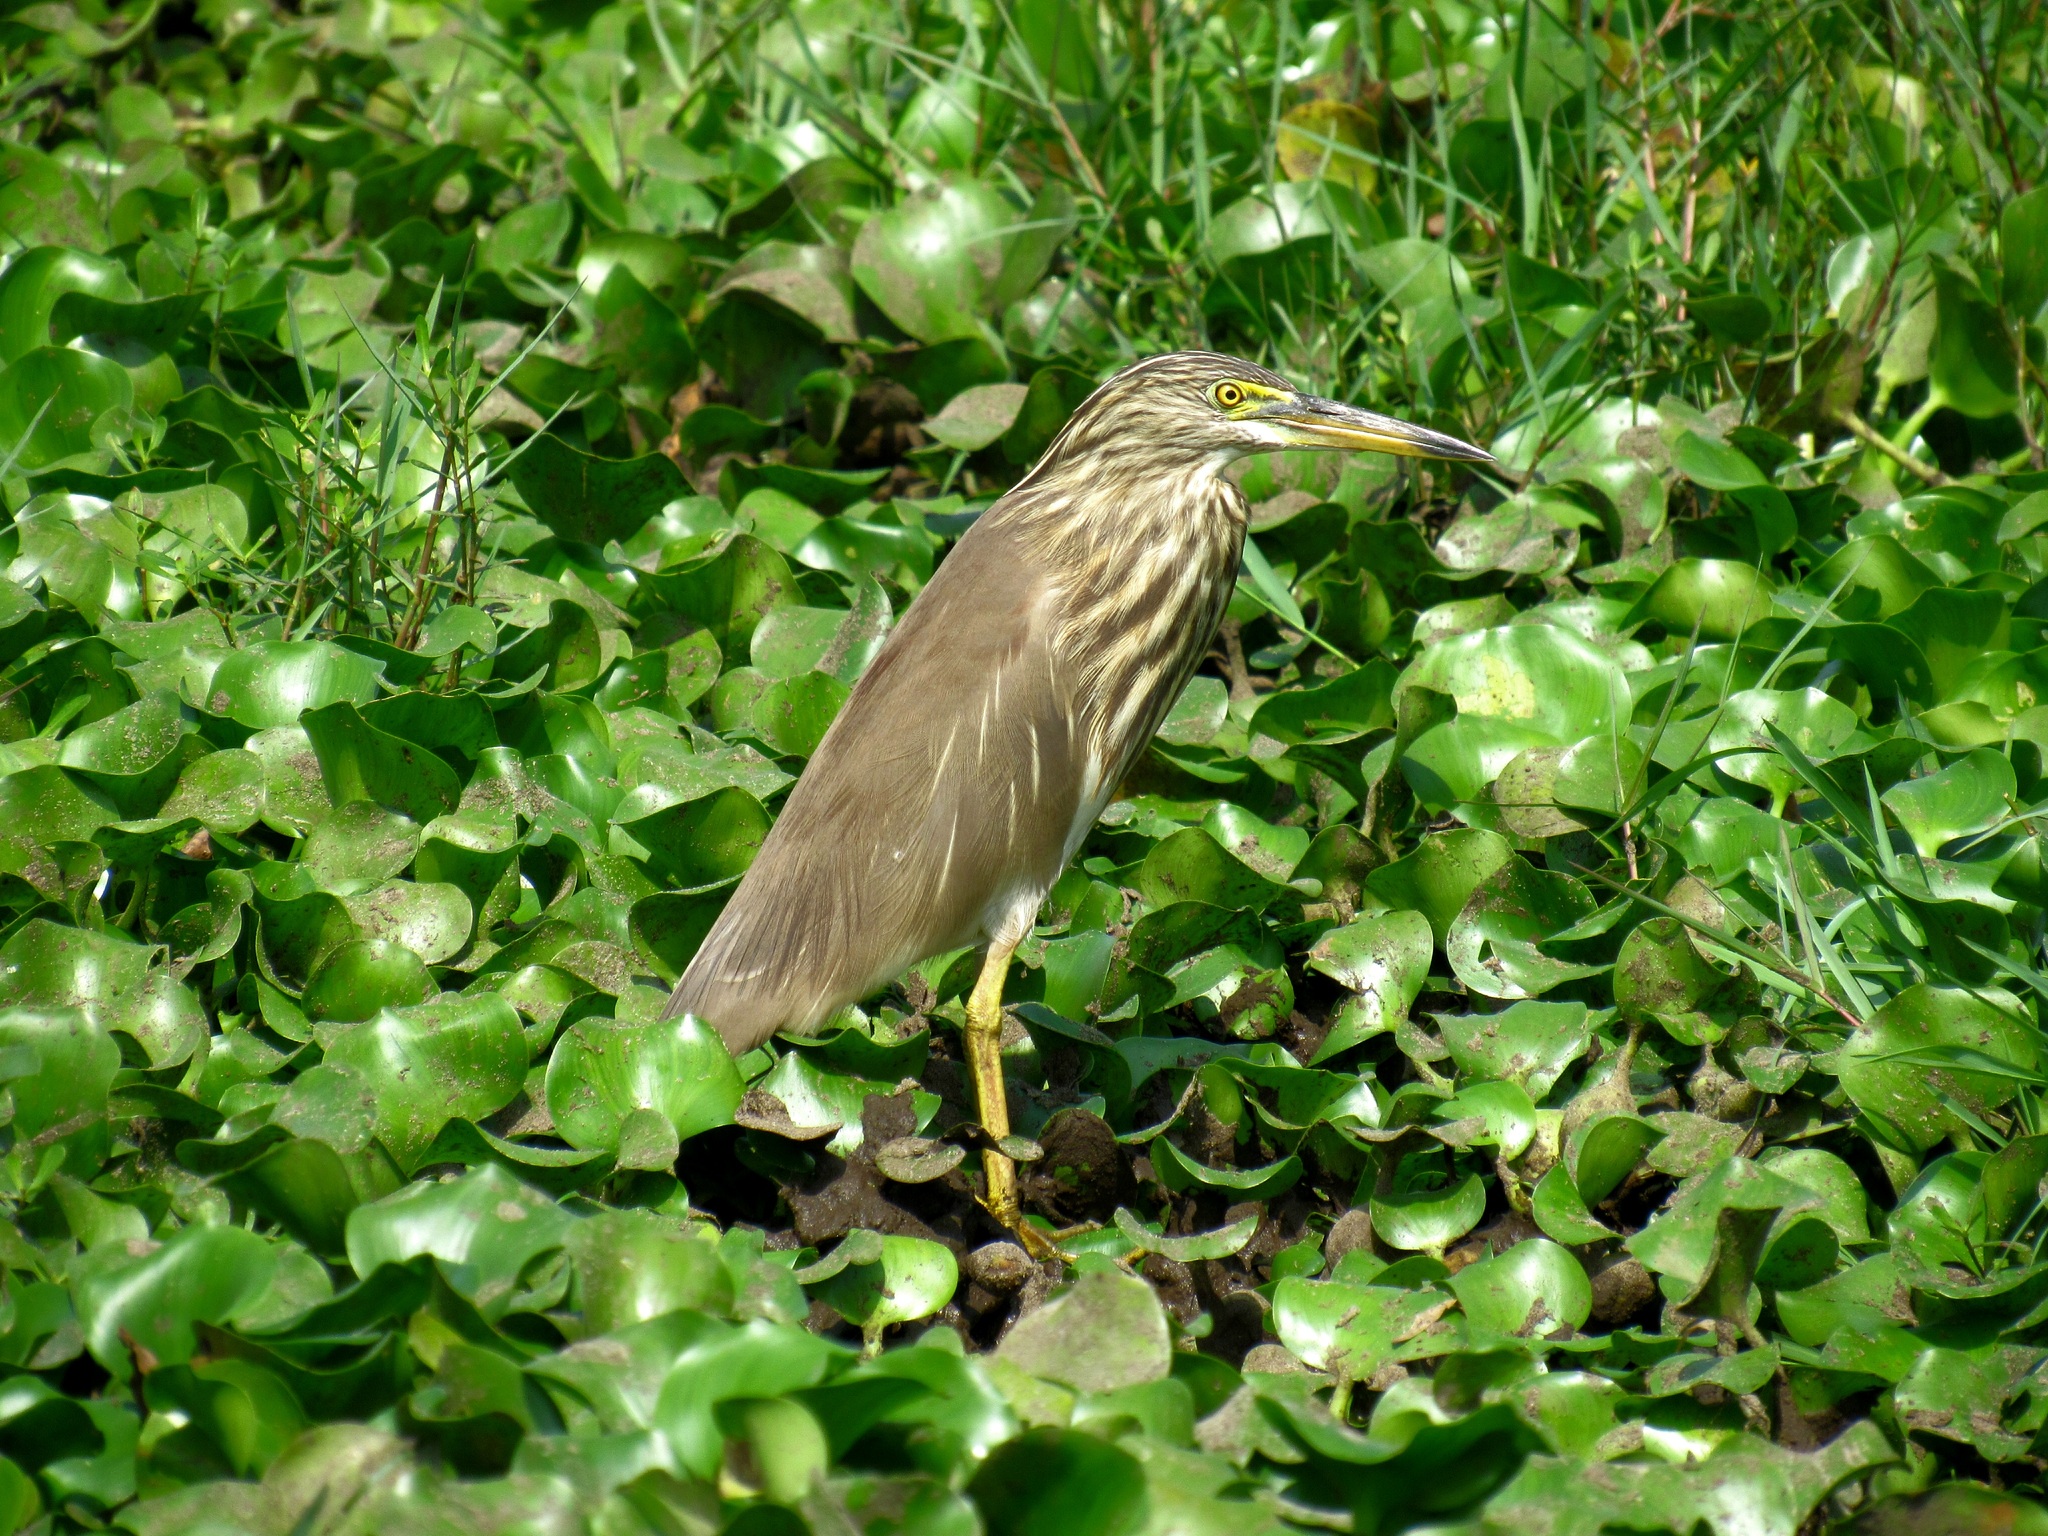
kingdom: Animalia
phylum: Chordata
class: Aves
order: Pelecaniformes
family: Ardeidae
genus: Ardeola
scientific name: Ardeola grayii
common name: Indian pond heron
